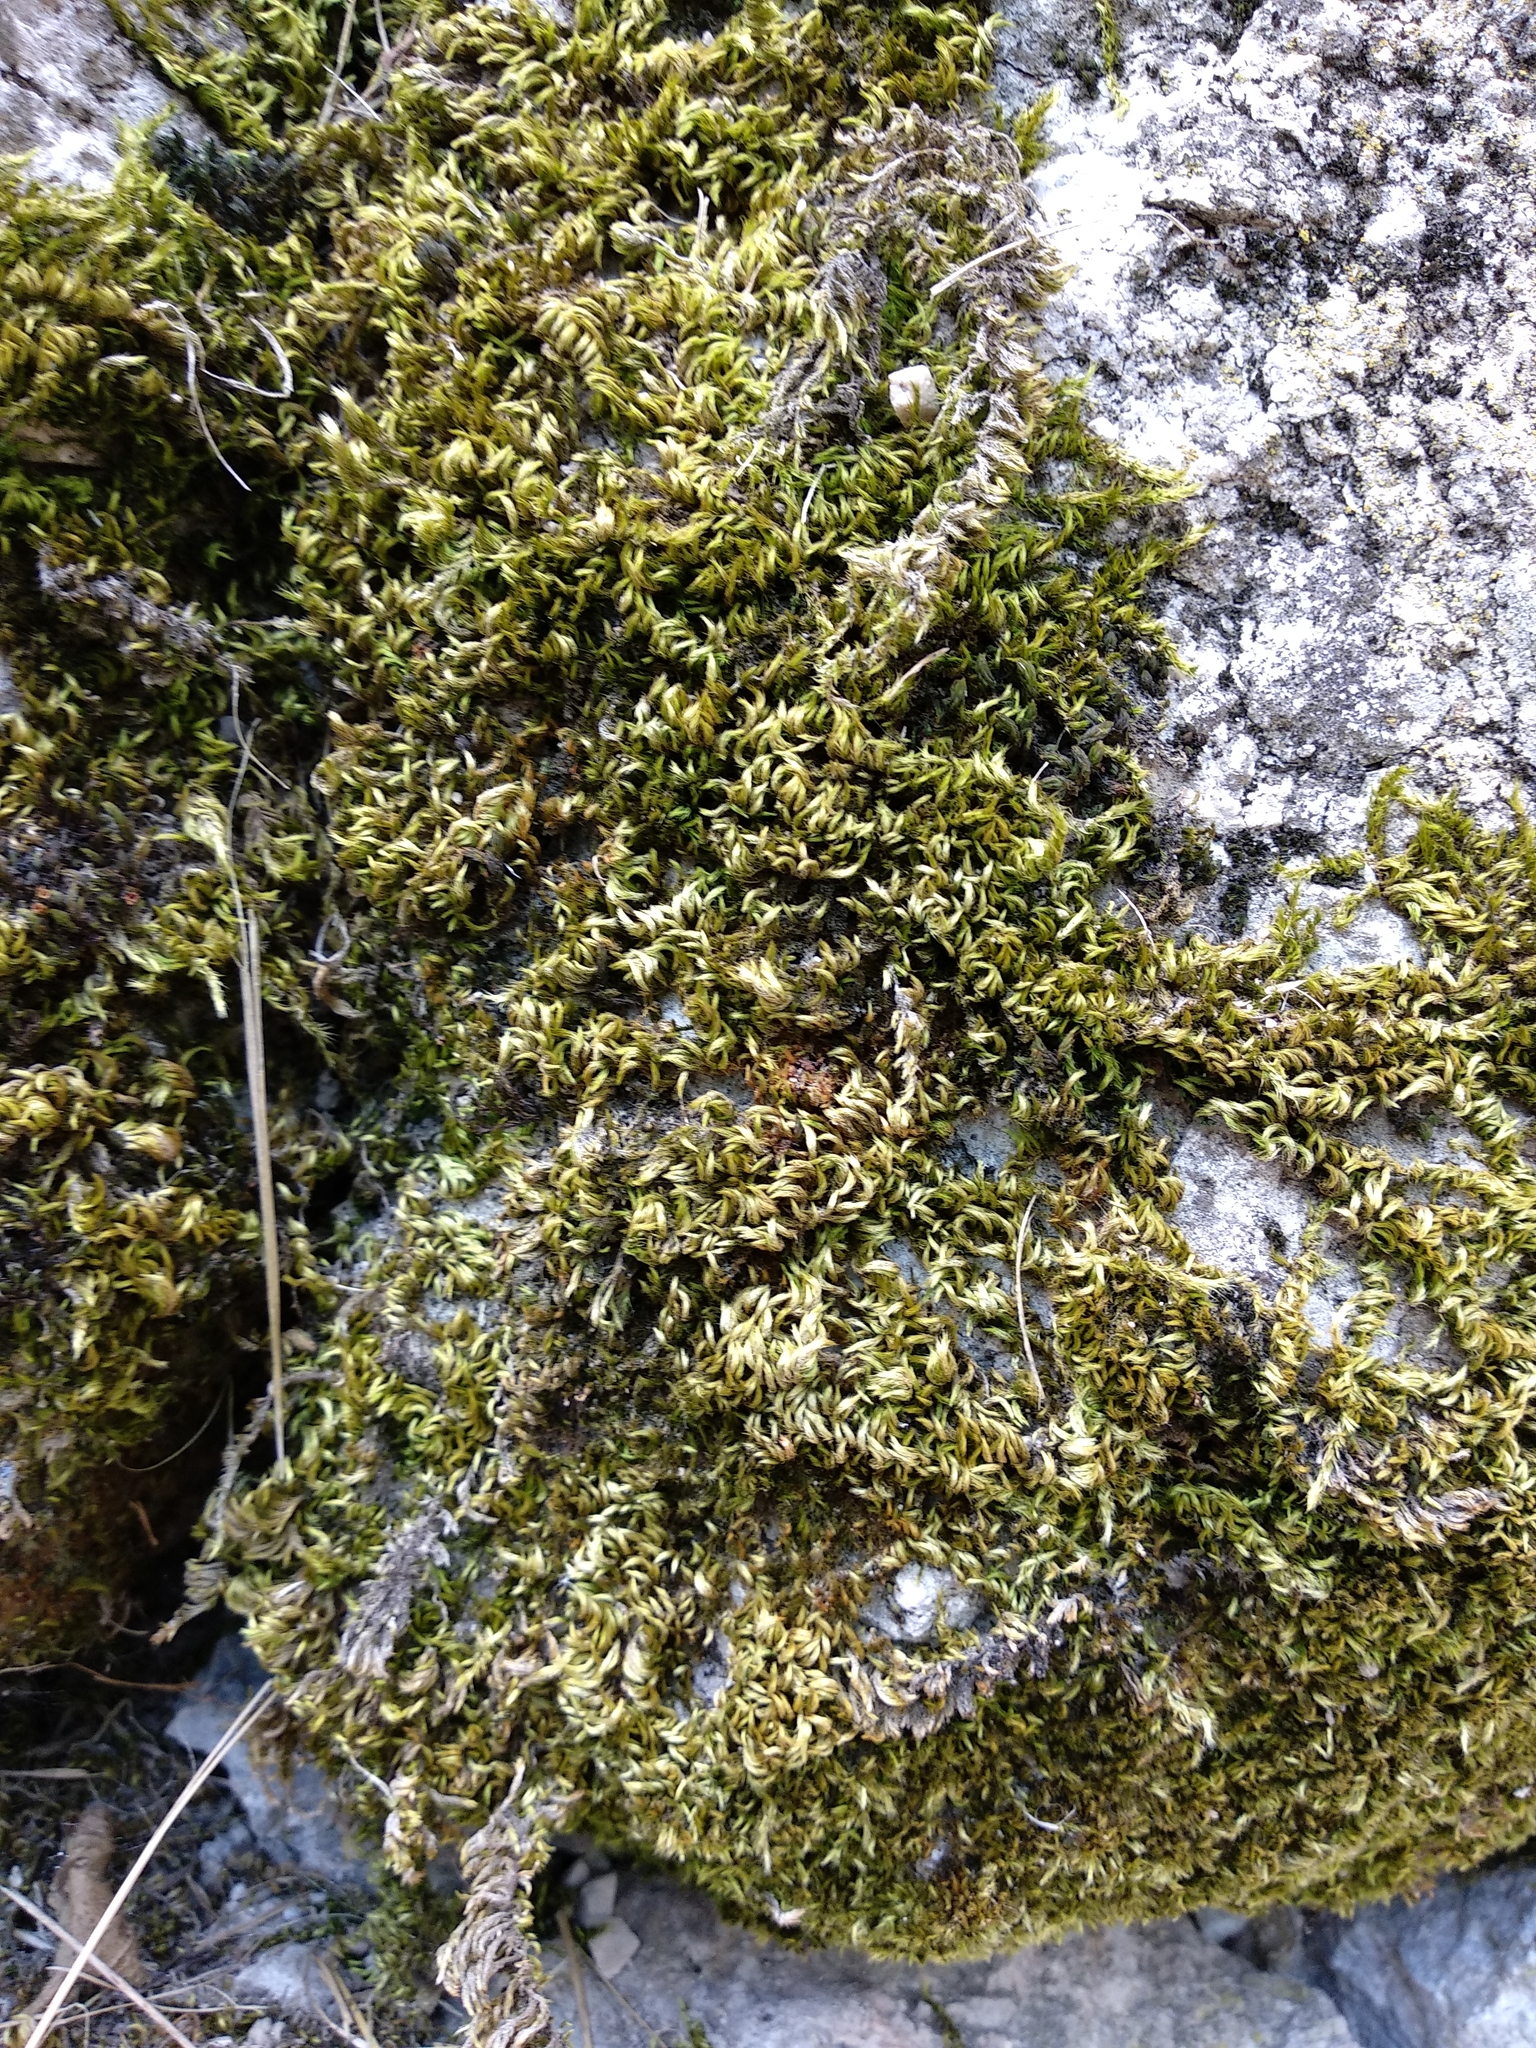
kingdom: Plantae
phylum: Bryophyta
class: Bryopsida
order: Hypnales
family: Brachytheciaceae
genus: Homalothecium
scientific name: Homalothecium sericeum
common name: Silky wall feather-moss
